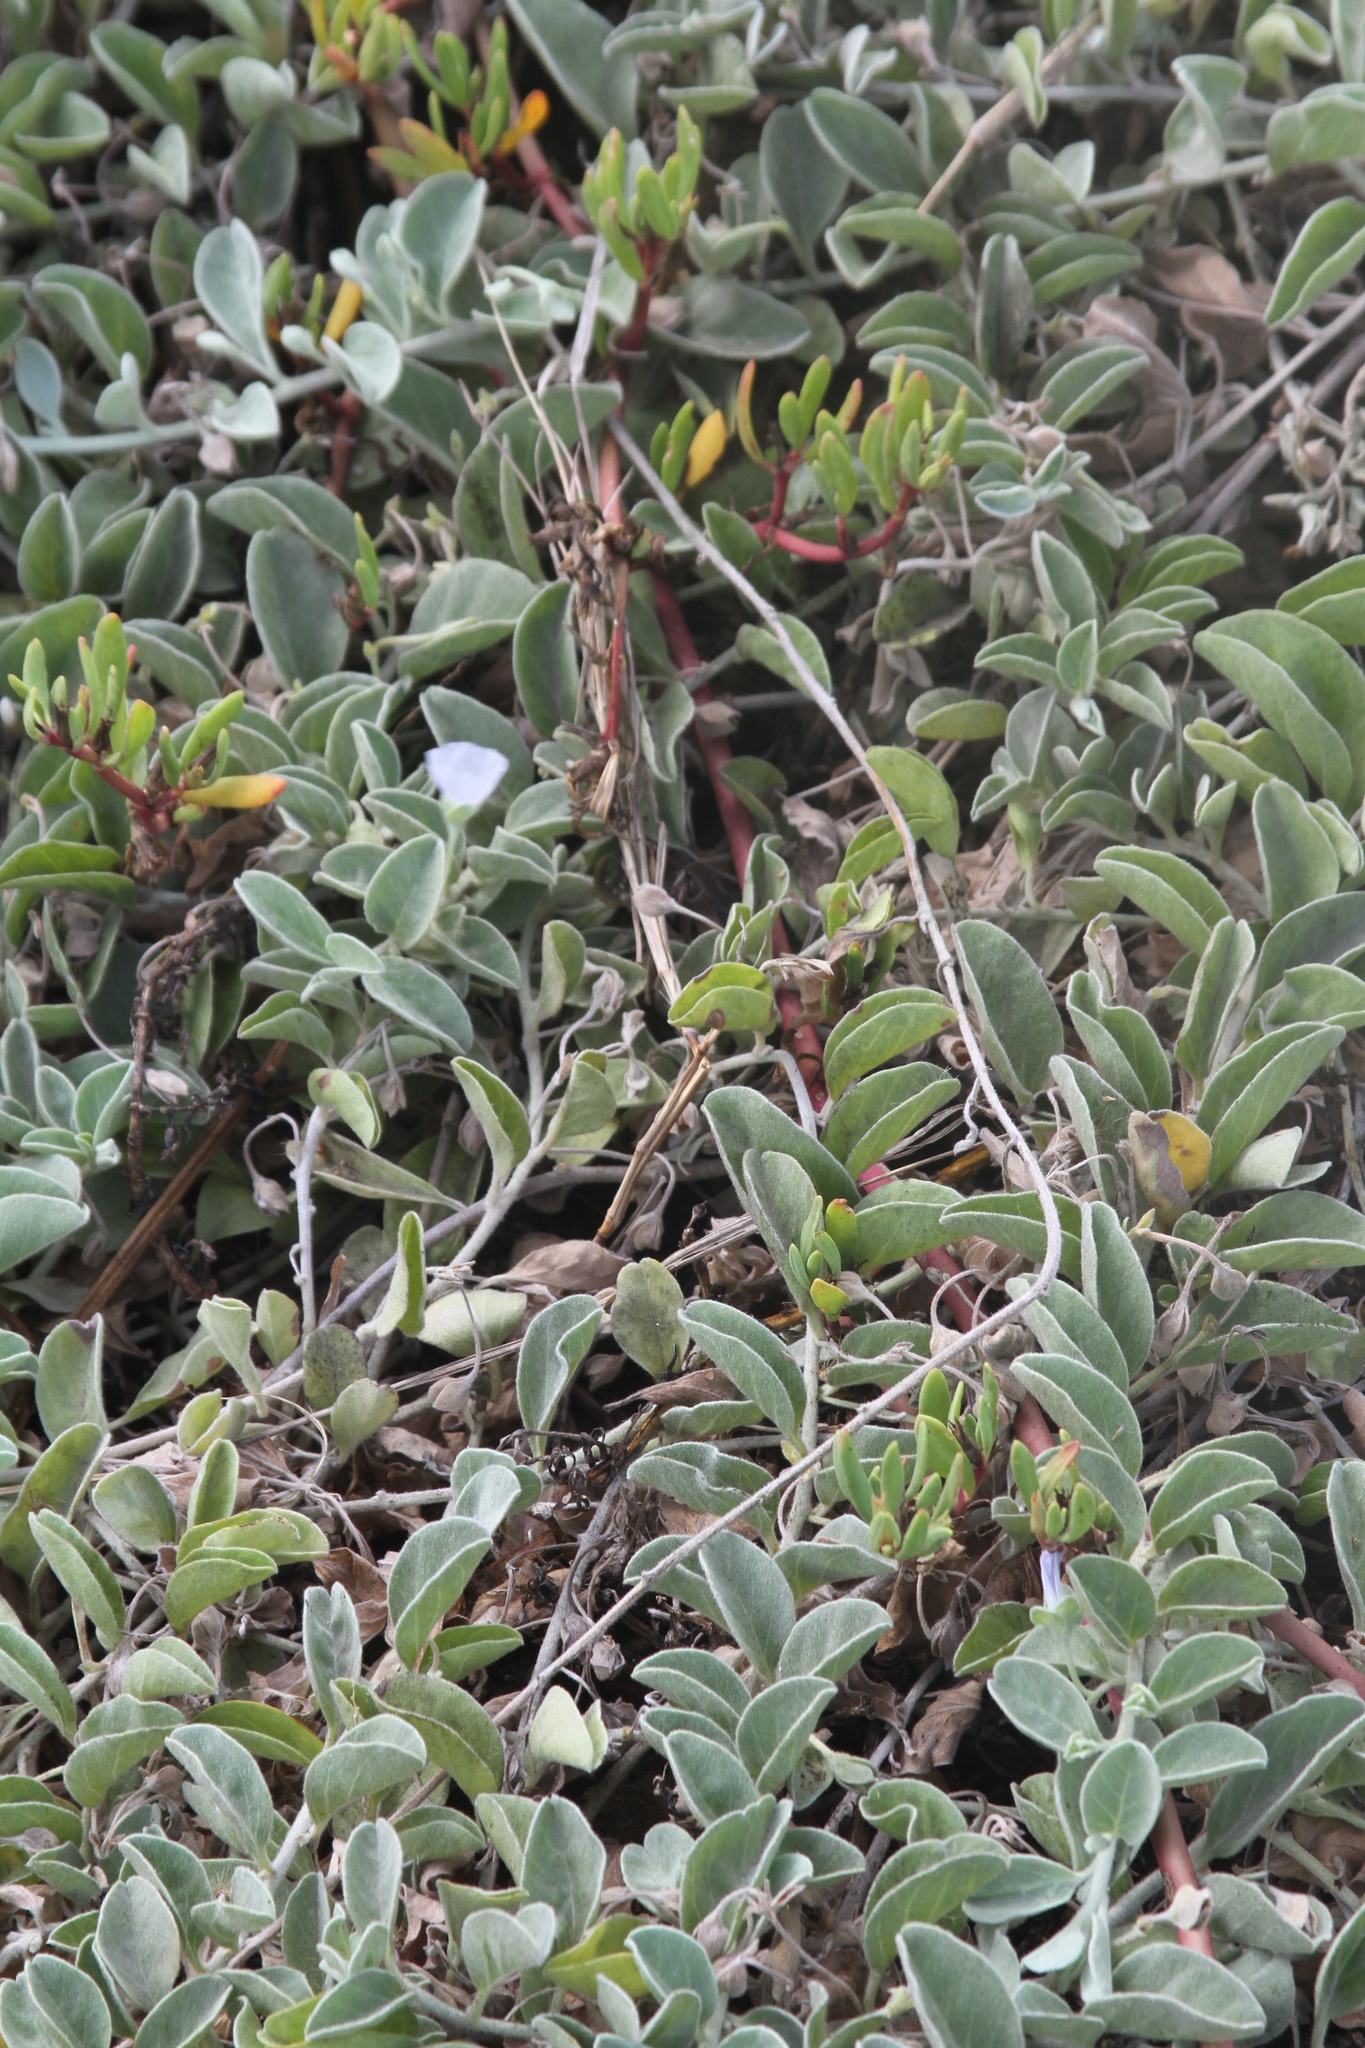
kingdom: Plantae
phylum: Tracheophyta
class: Magnoliopsida
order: Solanales
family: Convolvulaceae
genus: Jacquemontia
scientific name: Jacquemontia sandwicensis
